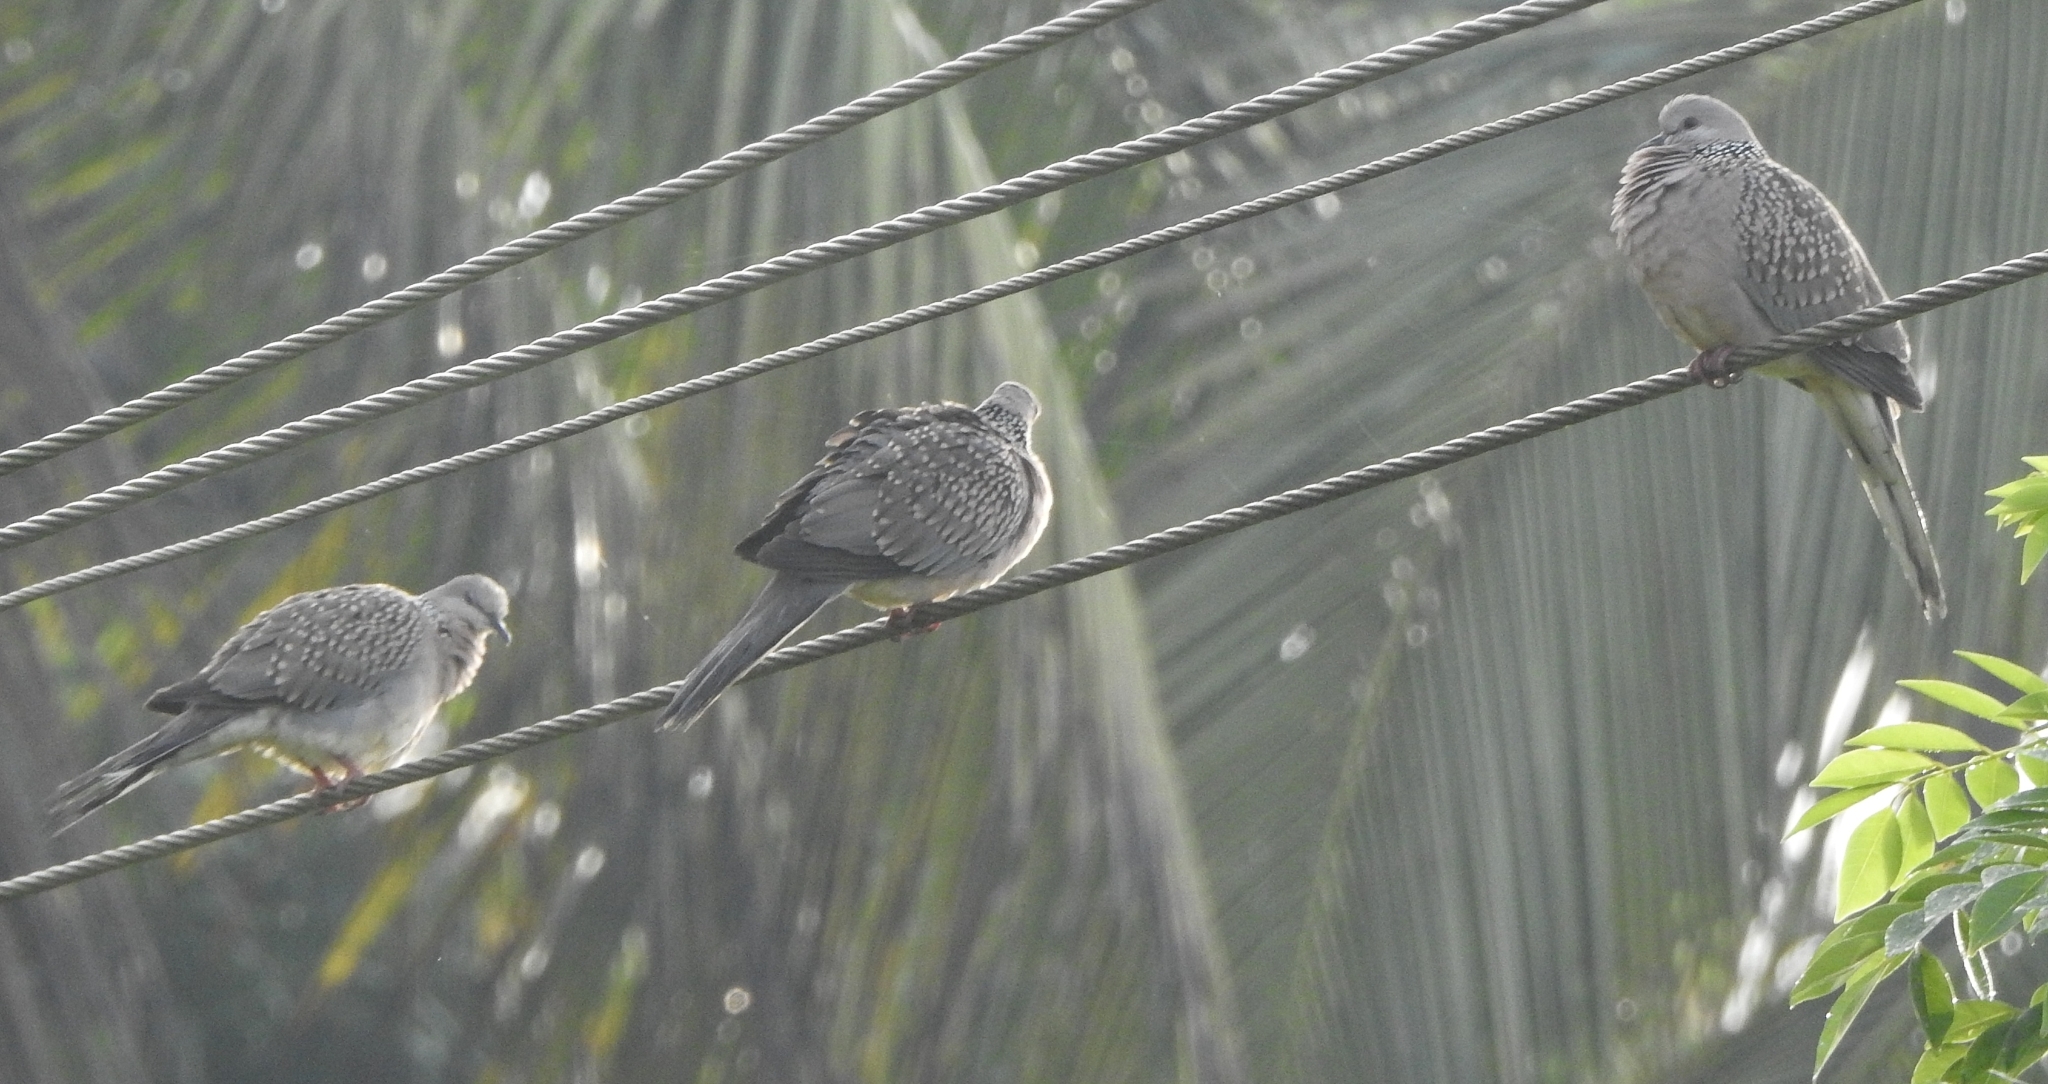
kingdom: Animalia
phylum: Chordata
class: Aves
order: Columbiformes
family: Columbidae
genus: Spilopelia
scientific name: Spilopelia chinensis
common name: Spotted dove
